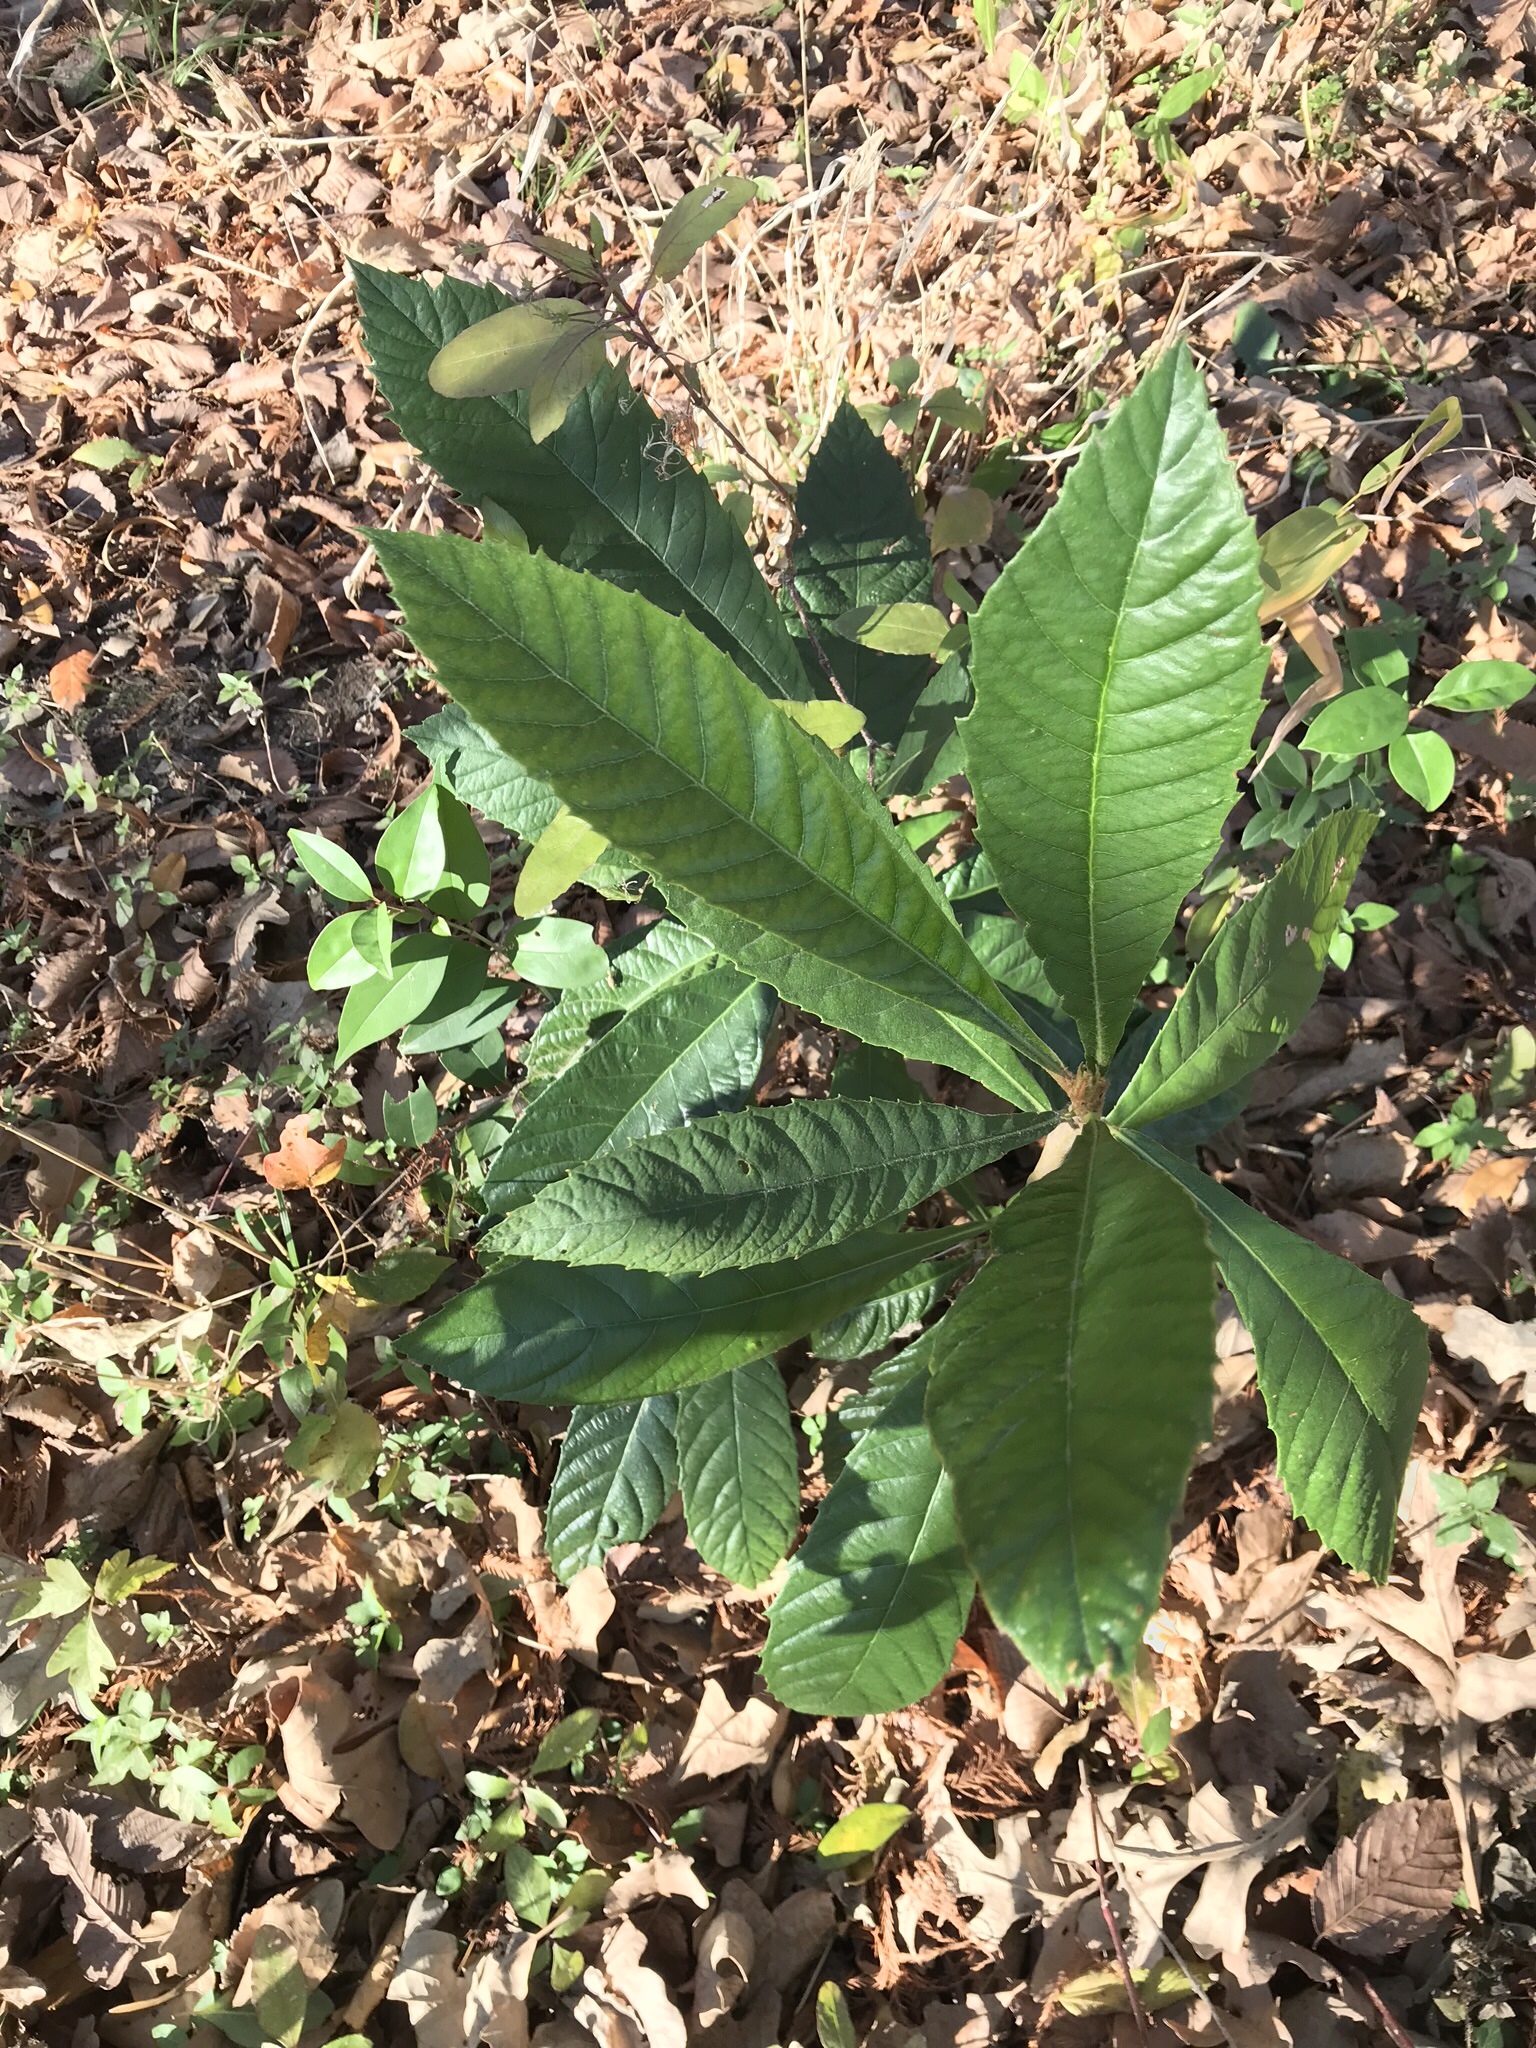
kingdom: Plantae
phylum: Tracheophyta
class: Magnoliopsida
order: Rosales
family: Rosaceae
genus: Rhaphiolepis
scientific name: Rhaphiolepis bibas
